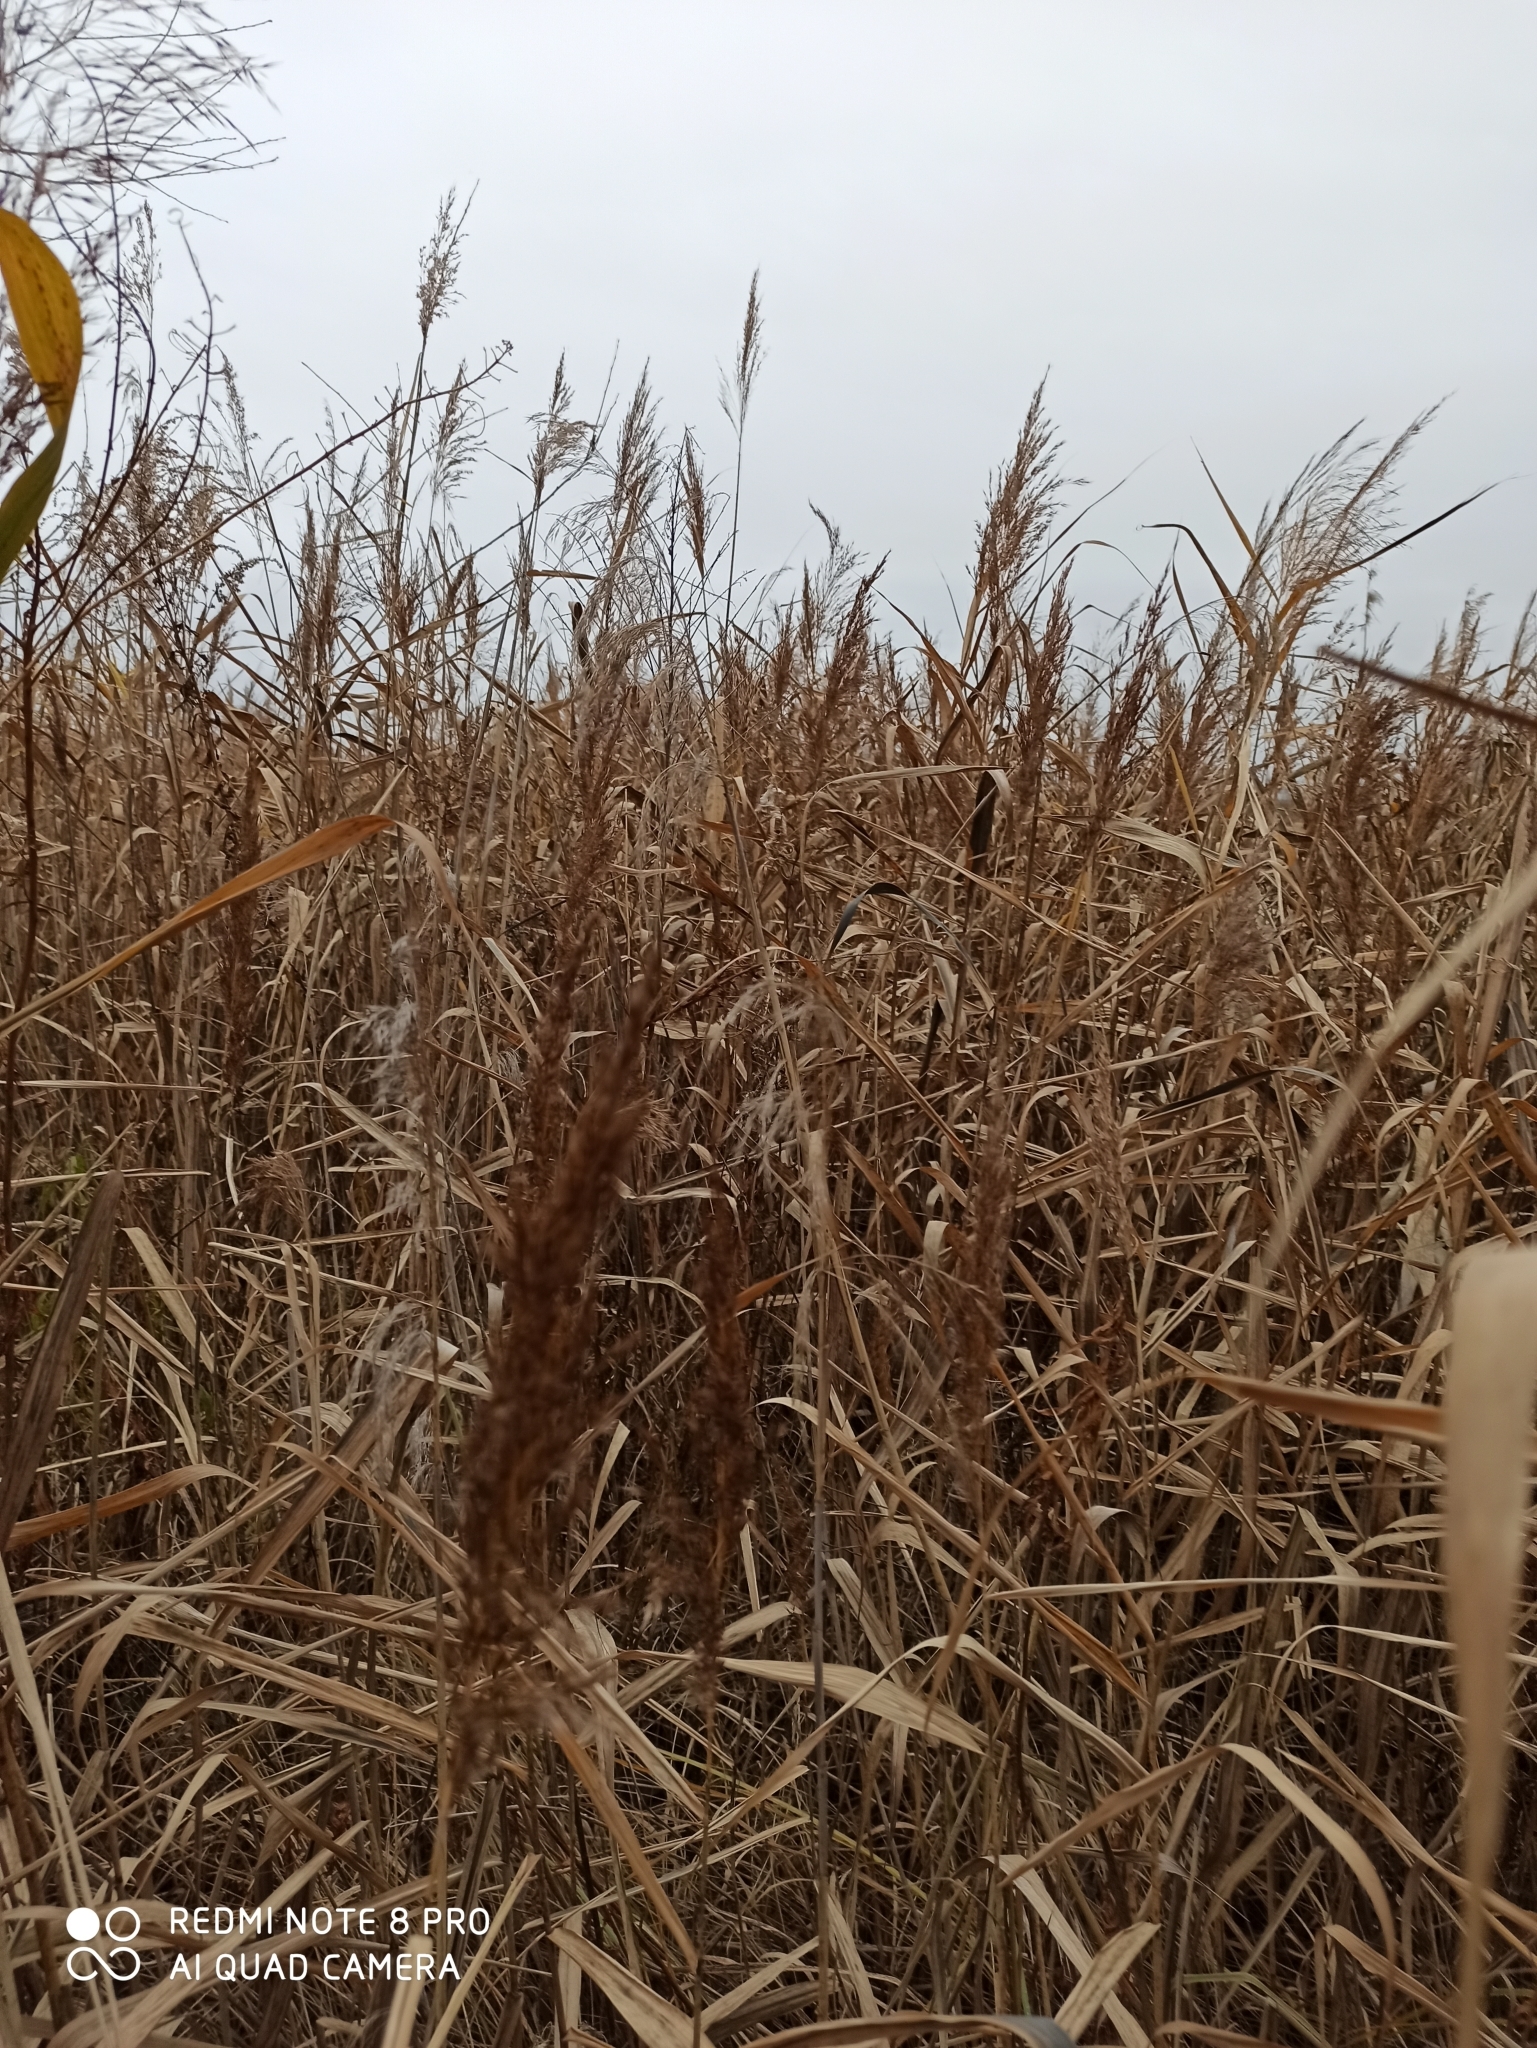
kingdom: Plantae
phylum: Tracheophyta
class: Liliopsida
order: Poales
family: Poaceae
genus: Phragmites
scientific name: Phragmites australis
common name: Common reed
